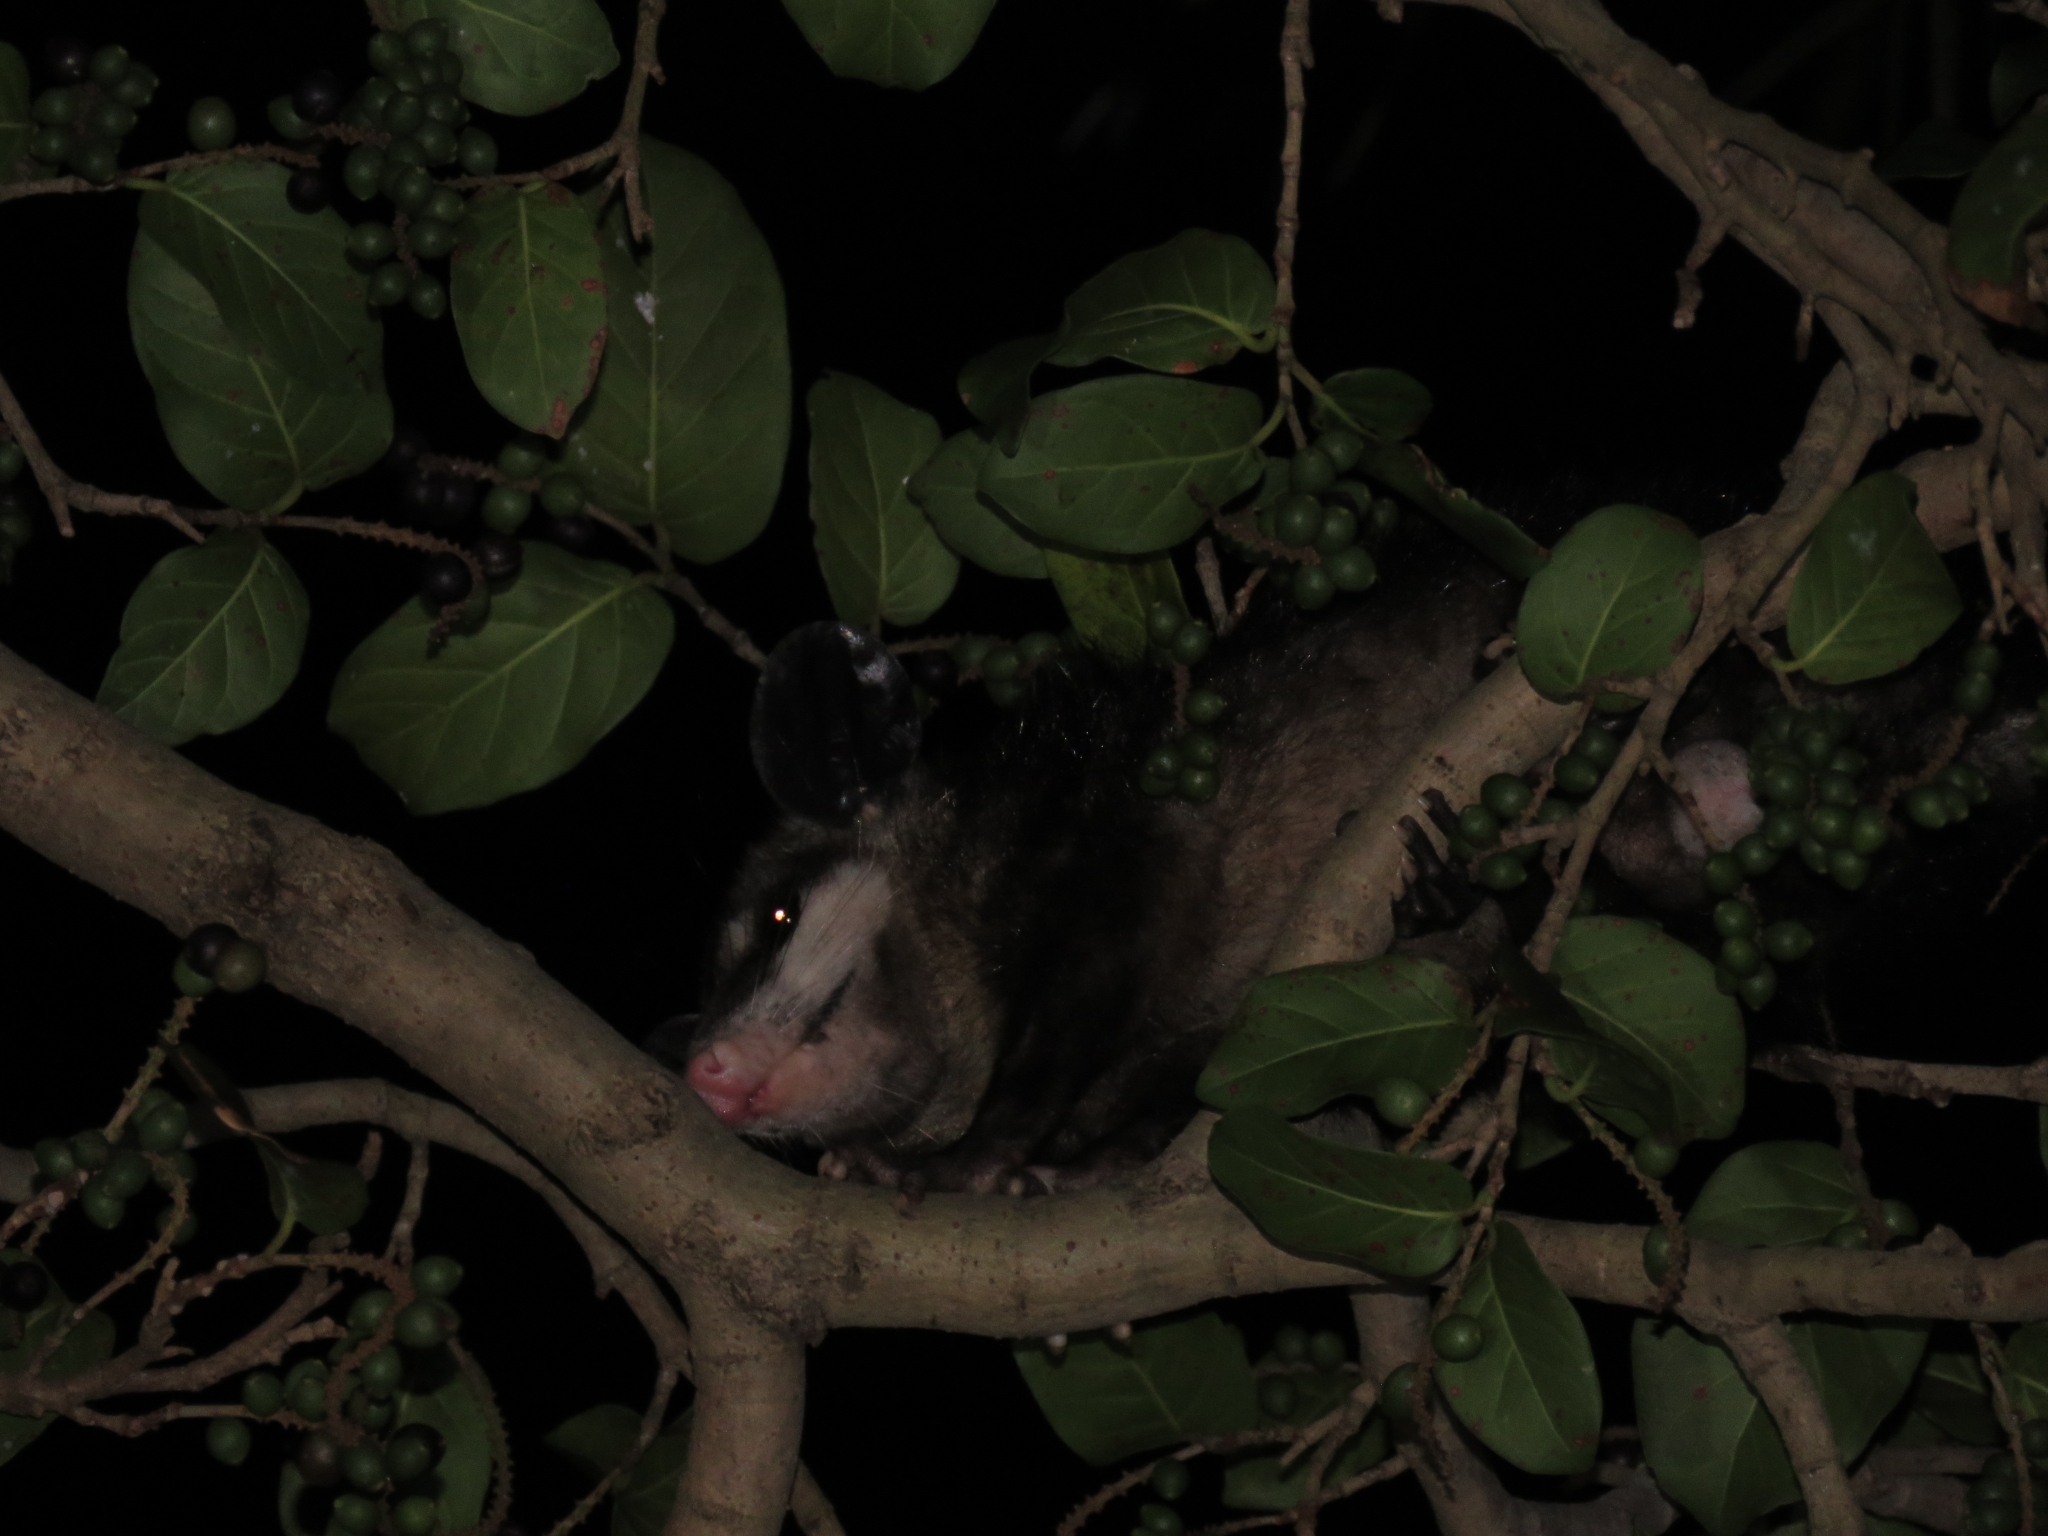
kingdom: Animalia
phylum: Chordata
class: Mammalia
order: Didelphimorphia
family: Didelphidae
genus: Didelphis
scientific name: Didelphis
